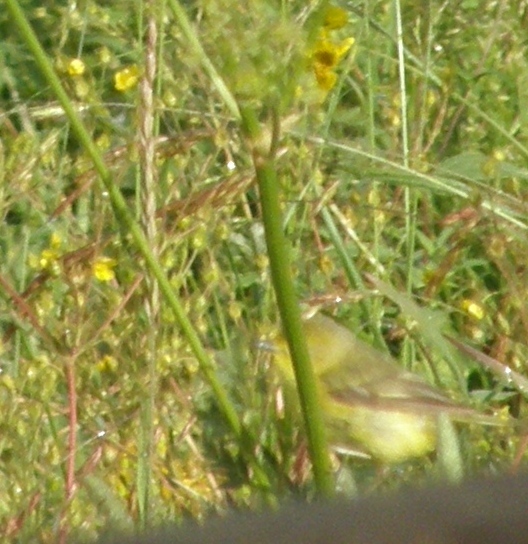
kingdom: Animalia
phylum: Chordata
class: Aves
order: Passeriformes
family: Parulidae
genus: Setophaga
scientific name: Setophaga petechia
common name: Yellow warbler
